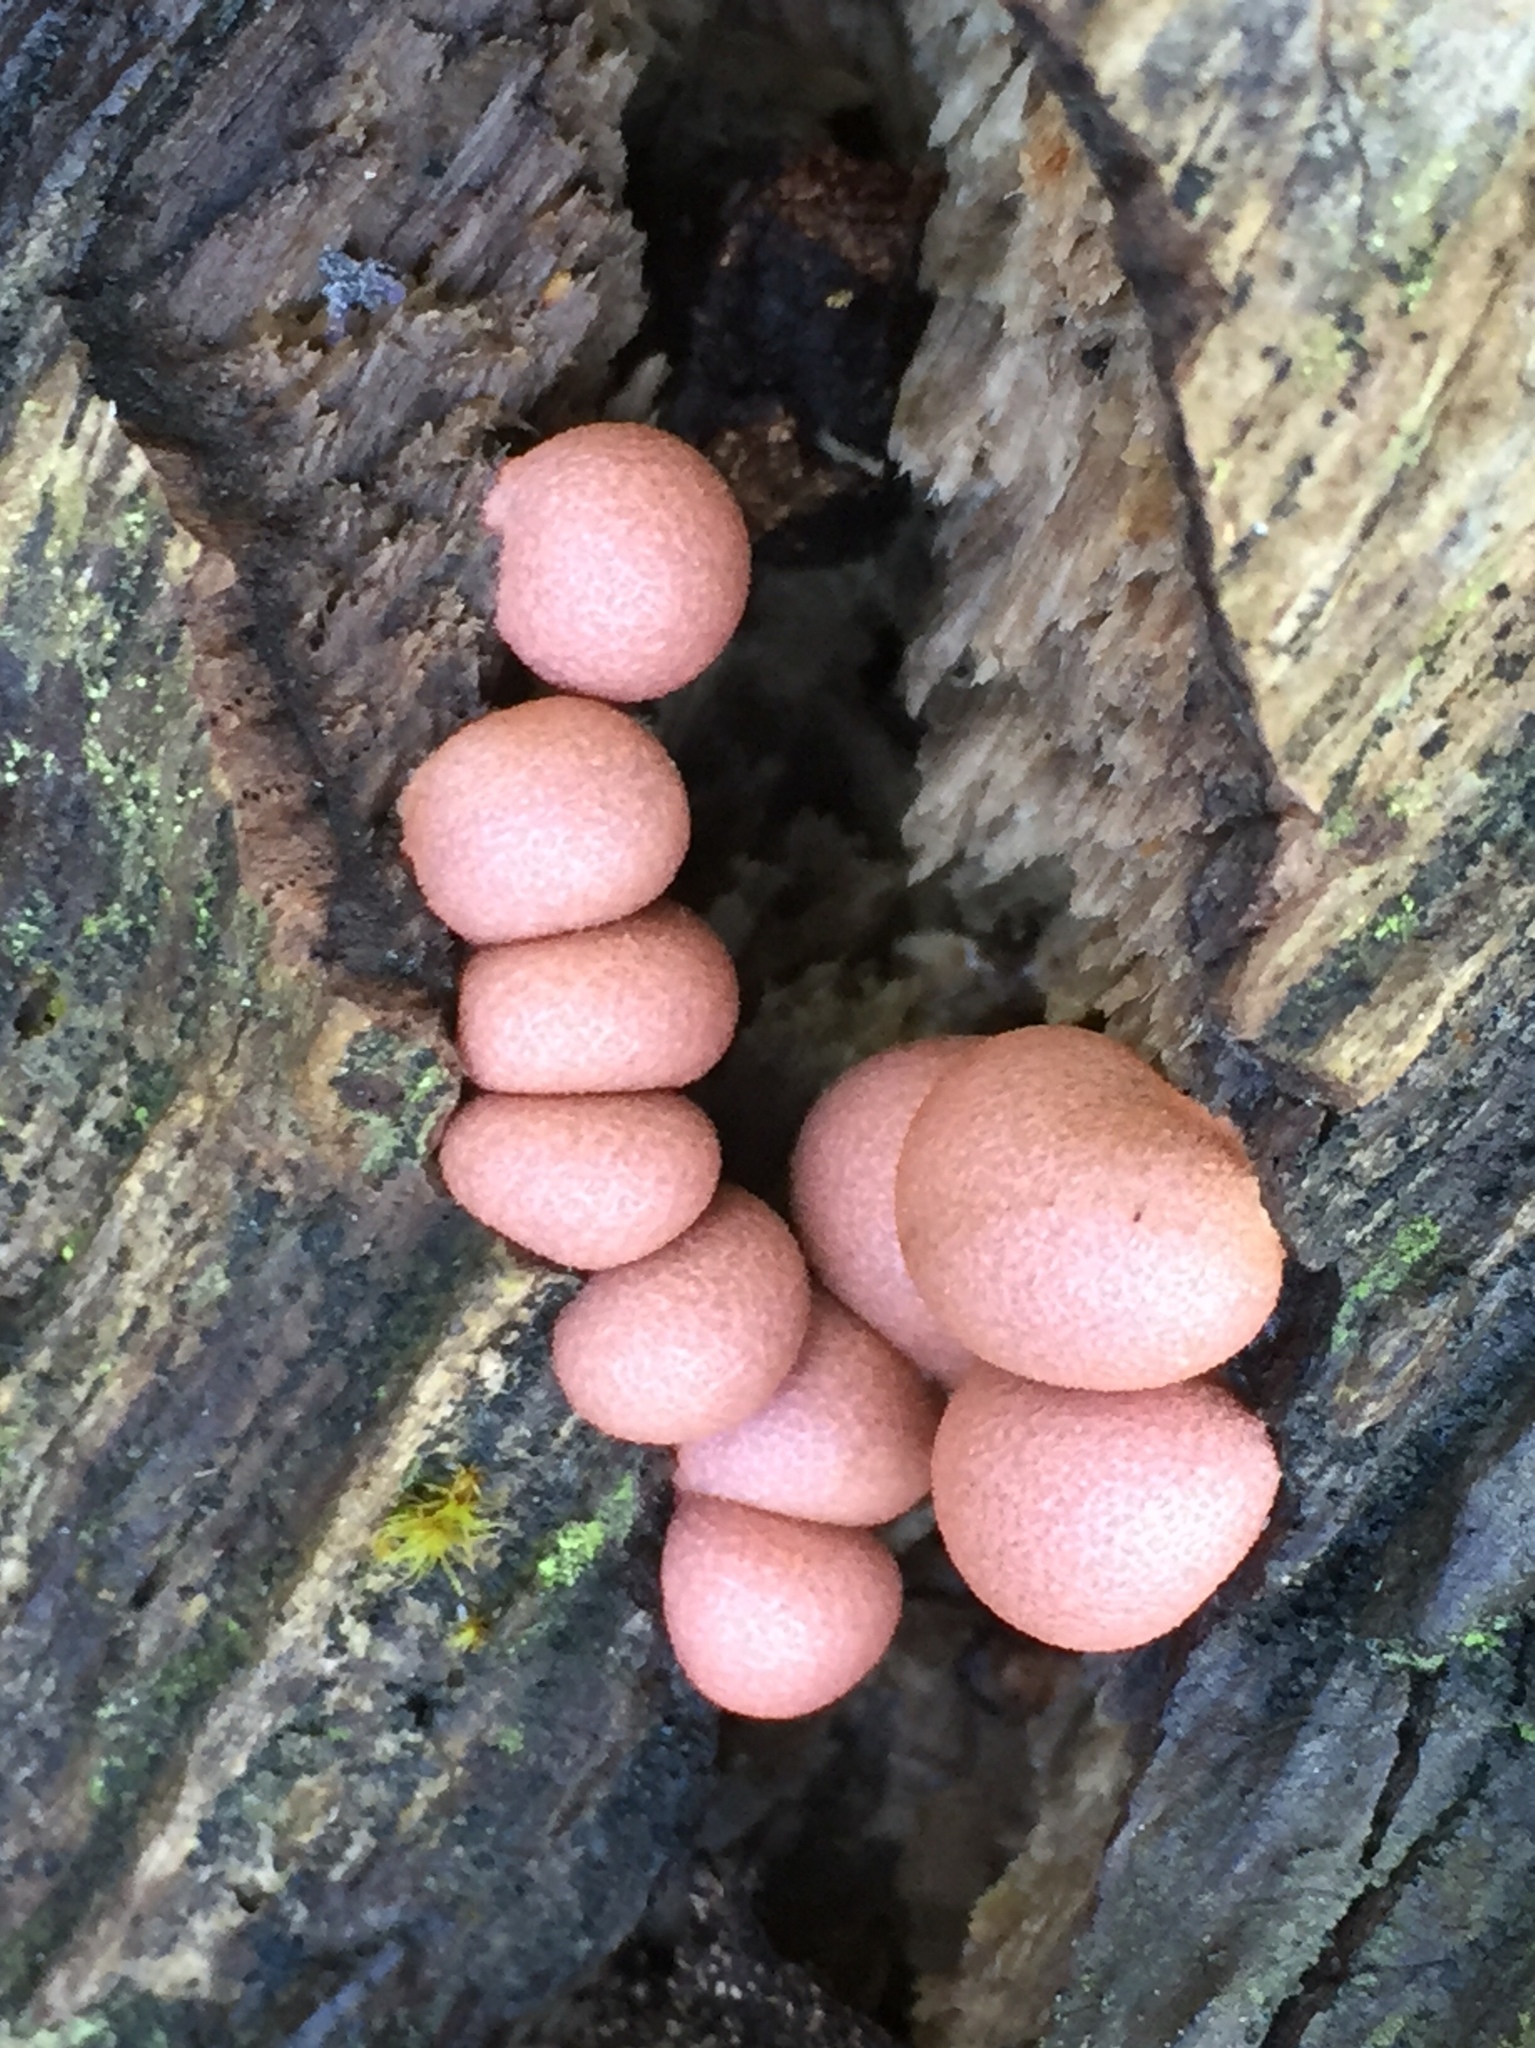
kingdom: Protozoa
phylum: Mycetozoa
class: Myxomycetes
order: Cribrariales
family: Tubiferaceae
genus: Lycogala
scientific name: Lycogala epidendrum
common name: Wolf's milk
